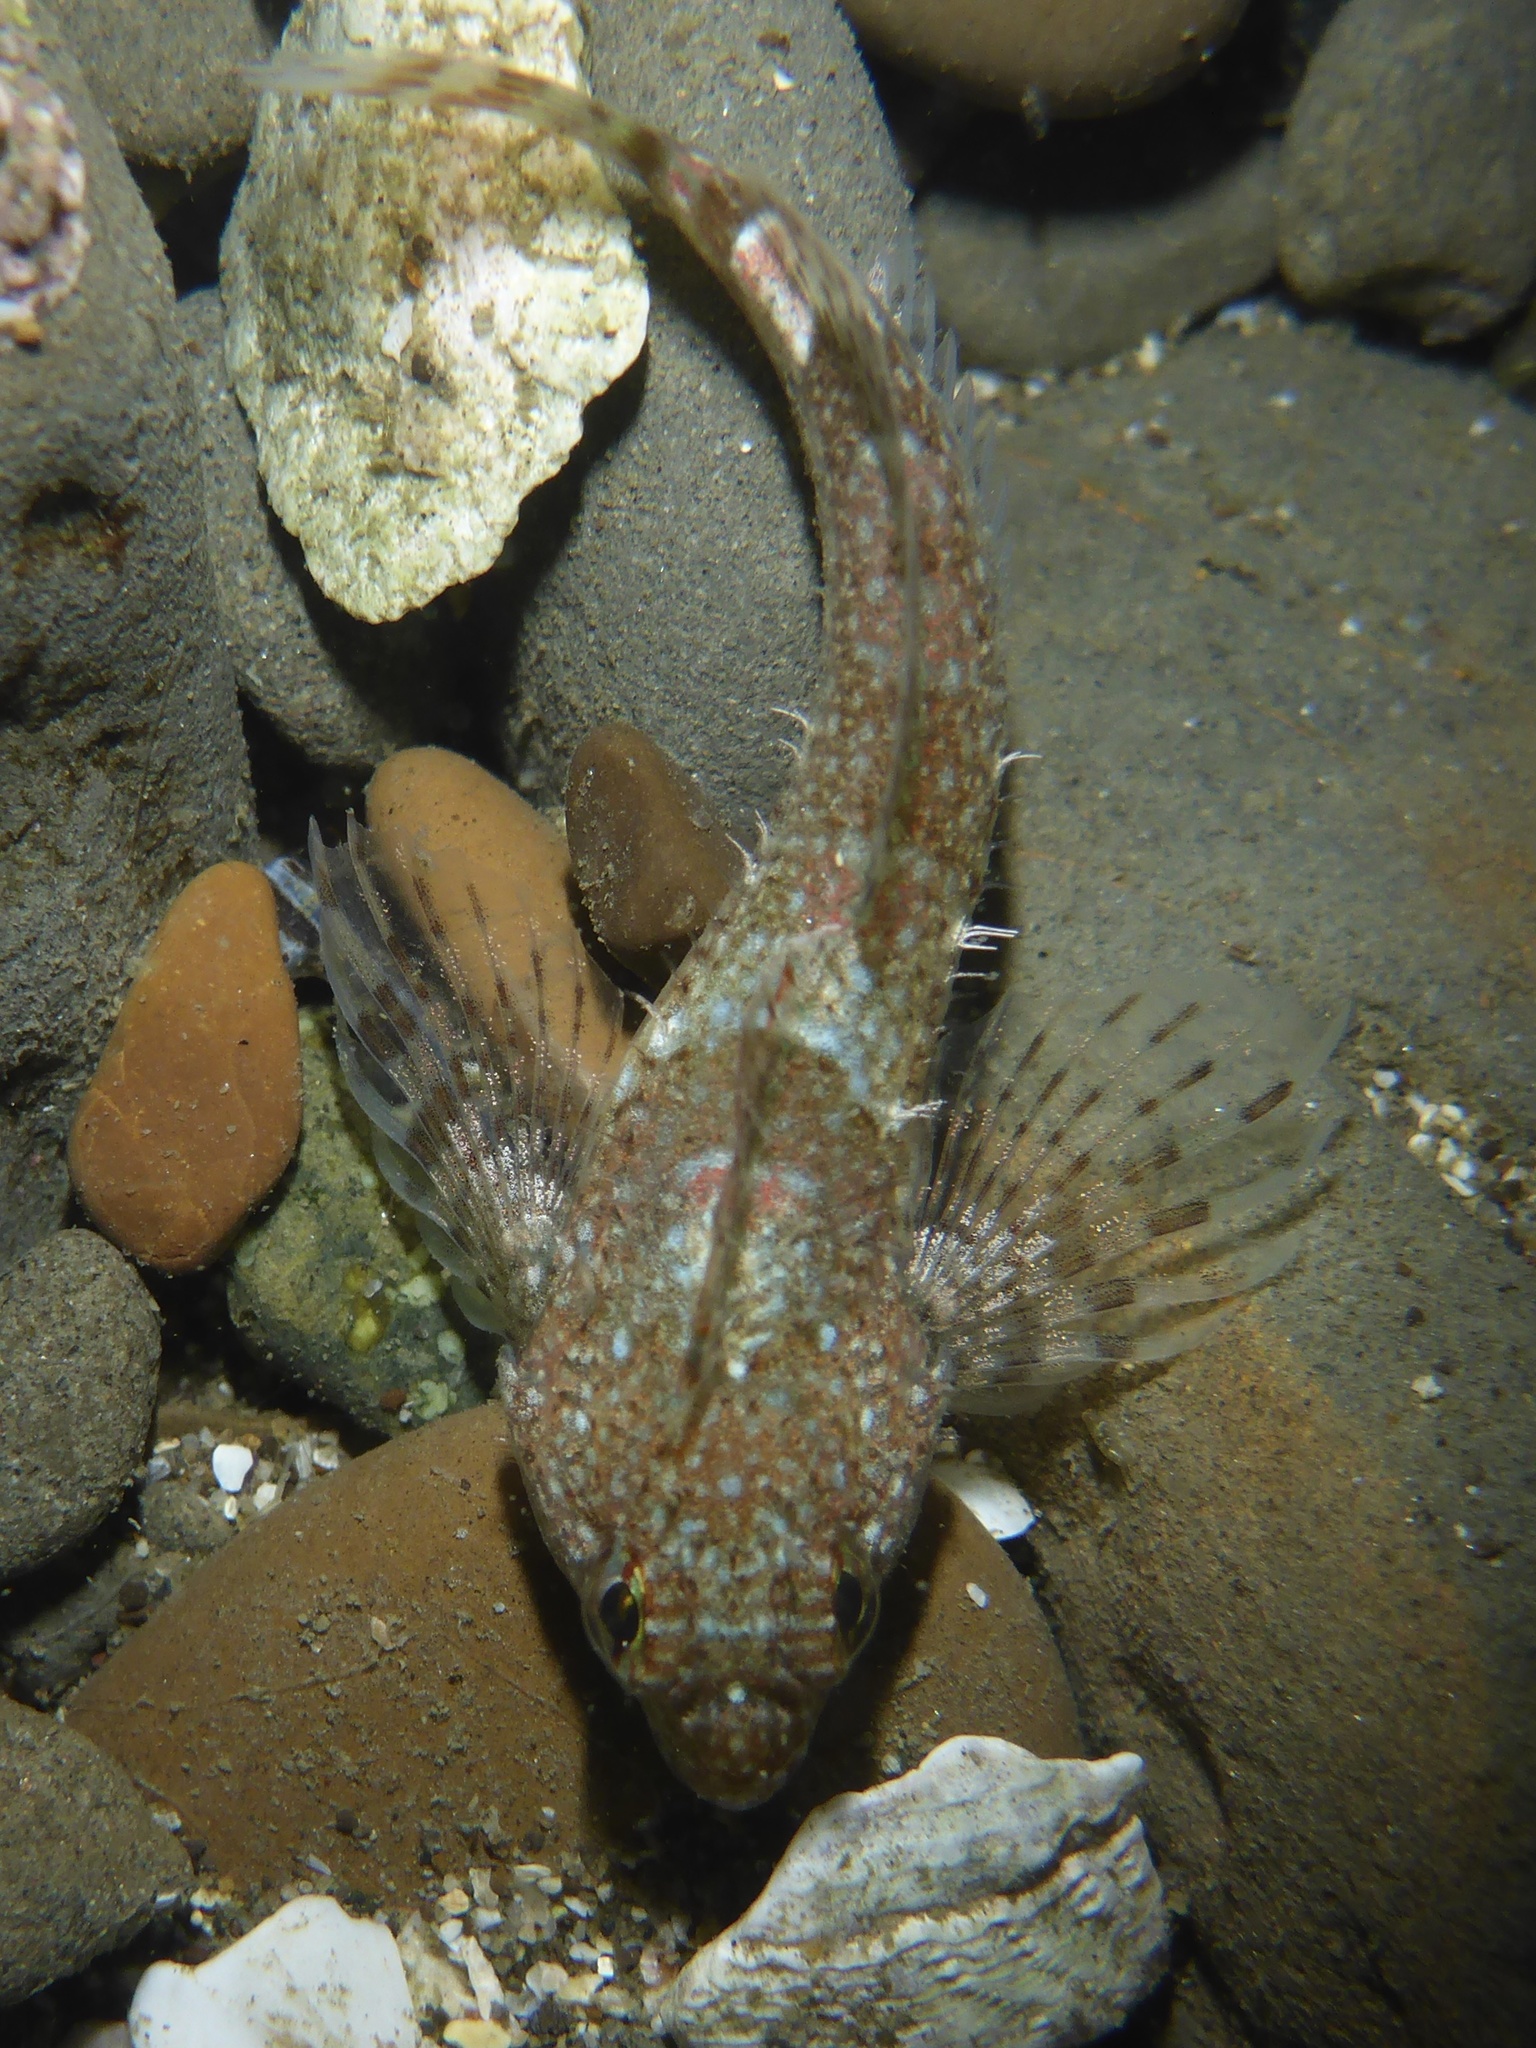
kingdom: Animalia
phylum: Chordata
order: Scorpaeniformes
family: Cottidae
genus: Clinocottus
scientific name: Clinocottus analis
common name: Woolly sculpin
